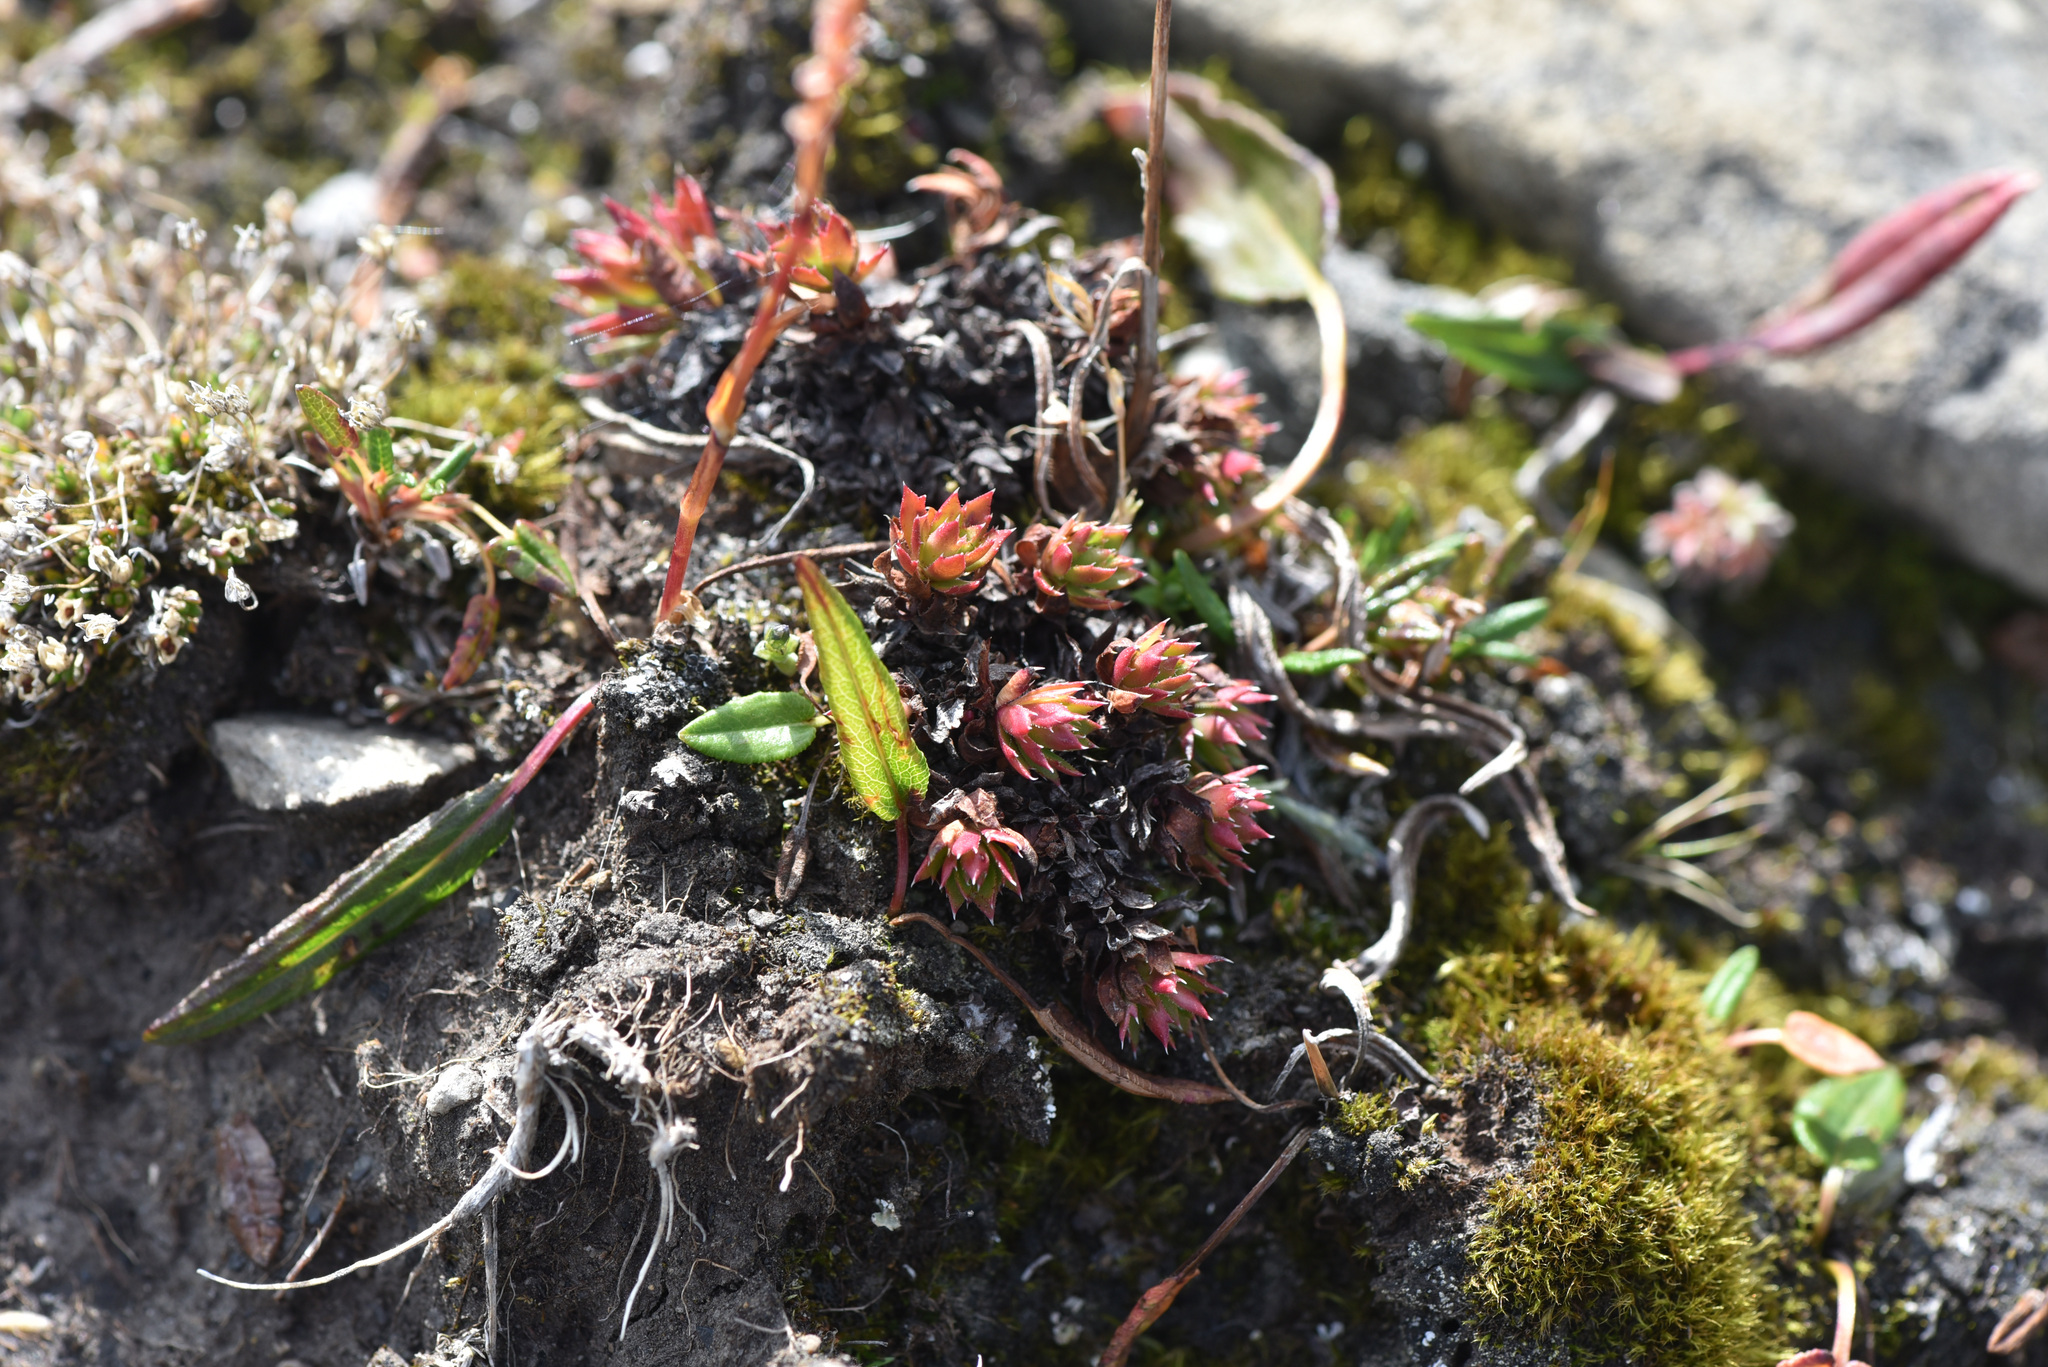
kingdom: Plantae
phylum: Tracheophyta
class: Magnoliopsida
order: Saxifragales
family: Saxifragaceae
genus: Saxifraga
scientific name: Saxifraga tricuspidata
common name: Prickly saxifrage
